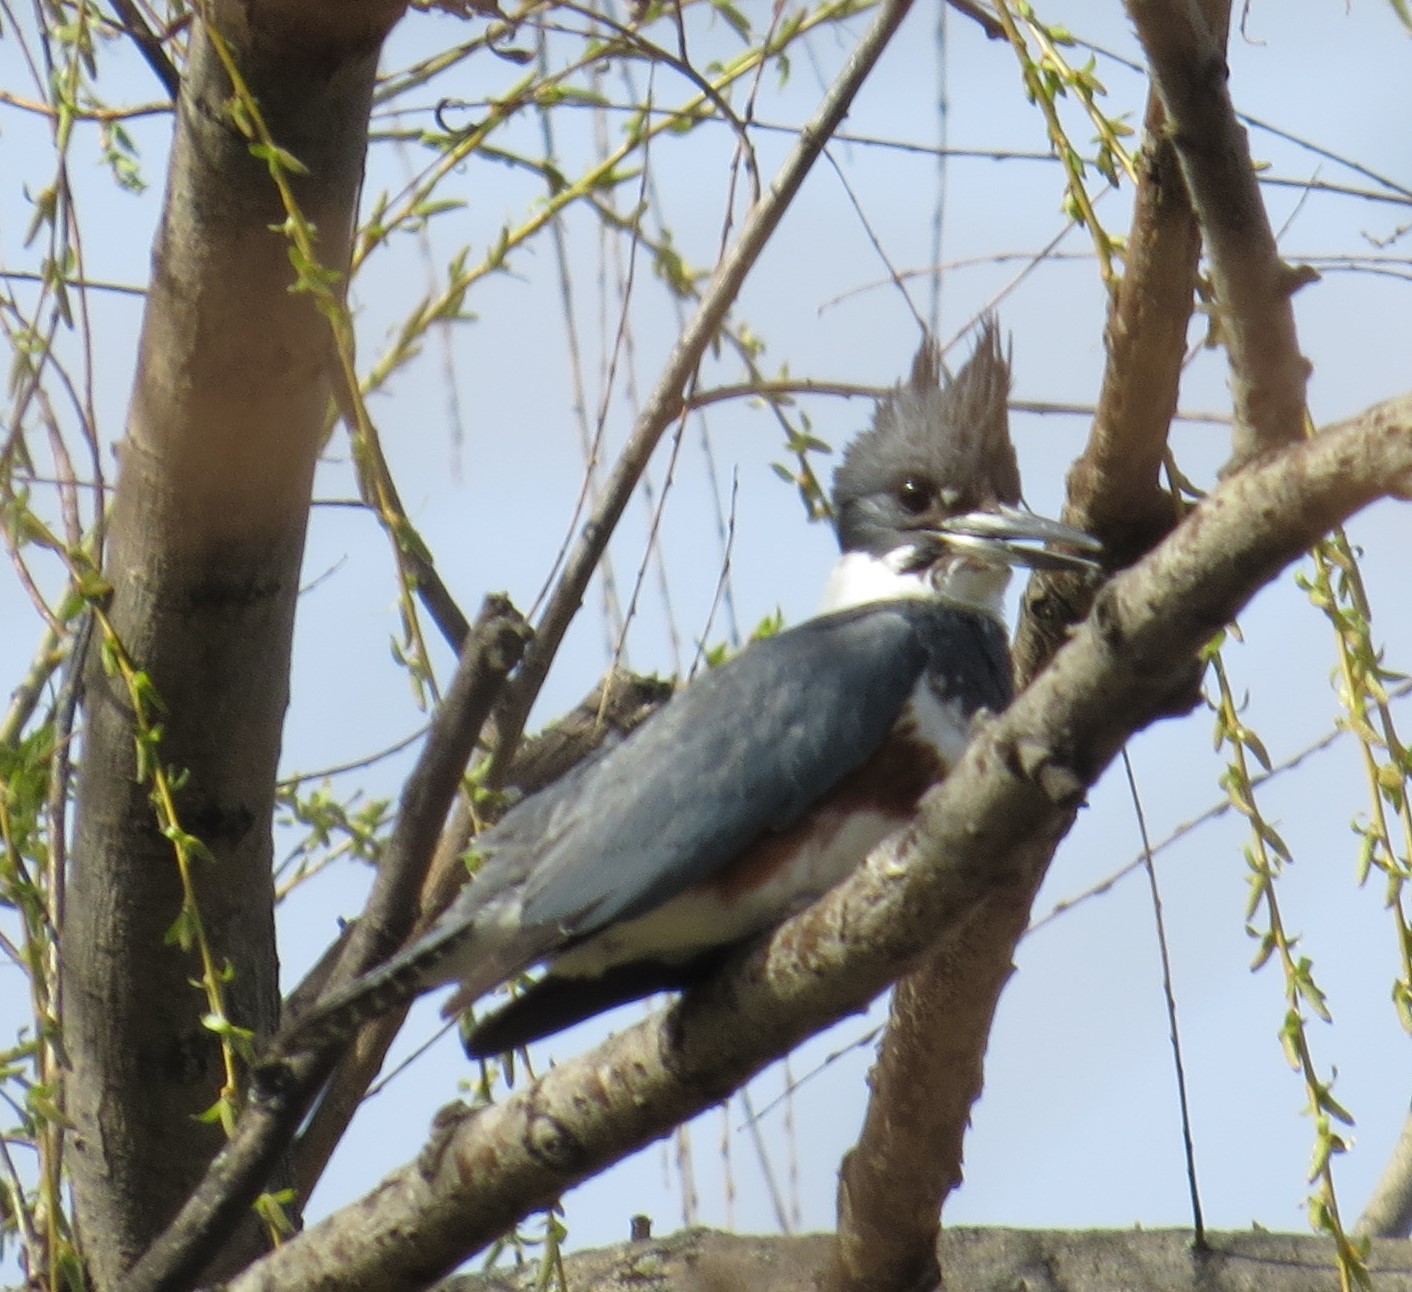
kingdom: Animalia
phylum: Chordata
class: Aves
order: Coraciiformes
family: Alcedinidae
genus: Megaceryle
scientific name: Megaceryle alcyon
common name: Belted kingfisher
